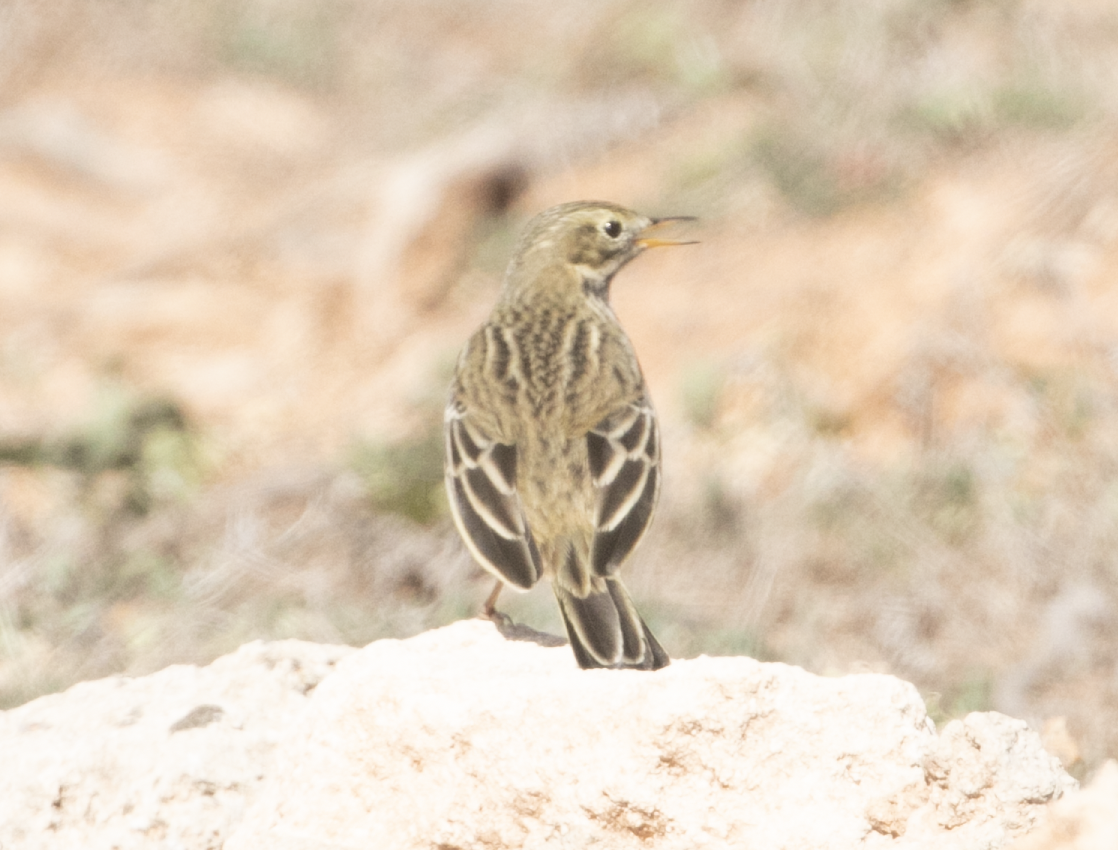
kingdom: Animalia
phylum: Chordata
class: Aves
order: Passeriformes
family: Motacillidae
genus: Anthus
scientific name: Anthus pratensis
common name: Meadow pipit
